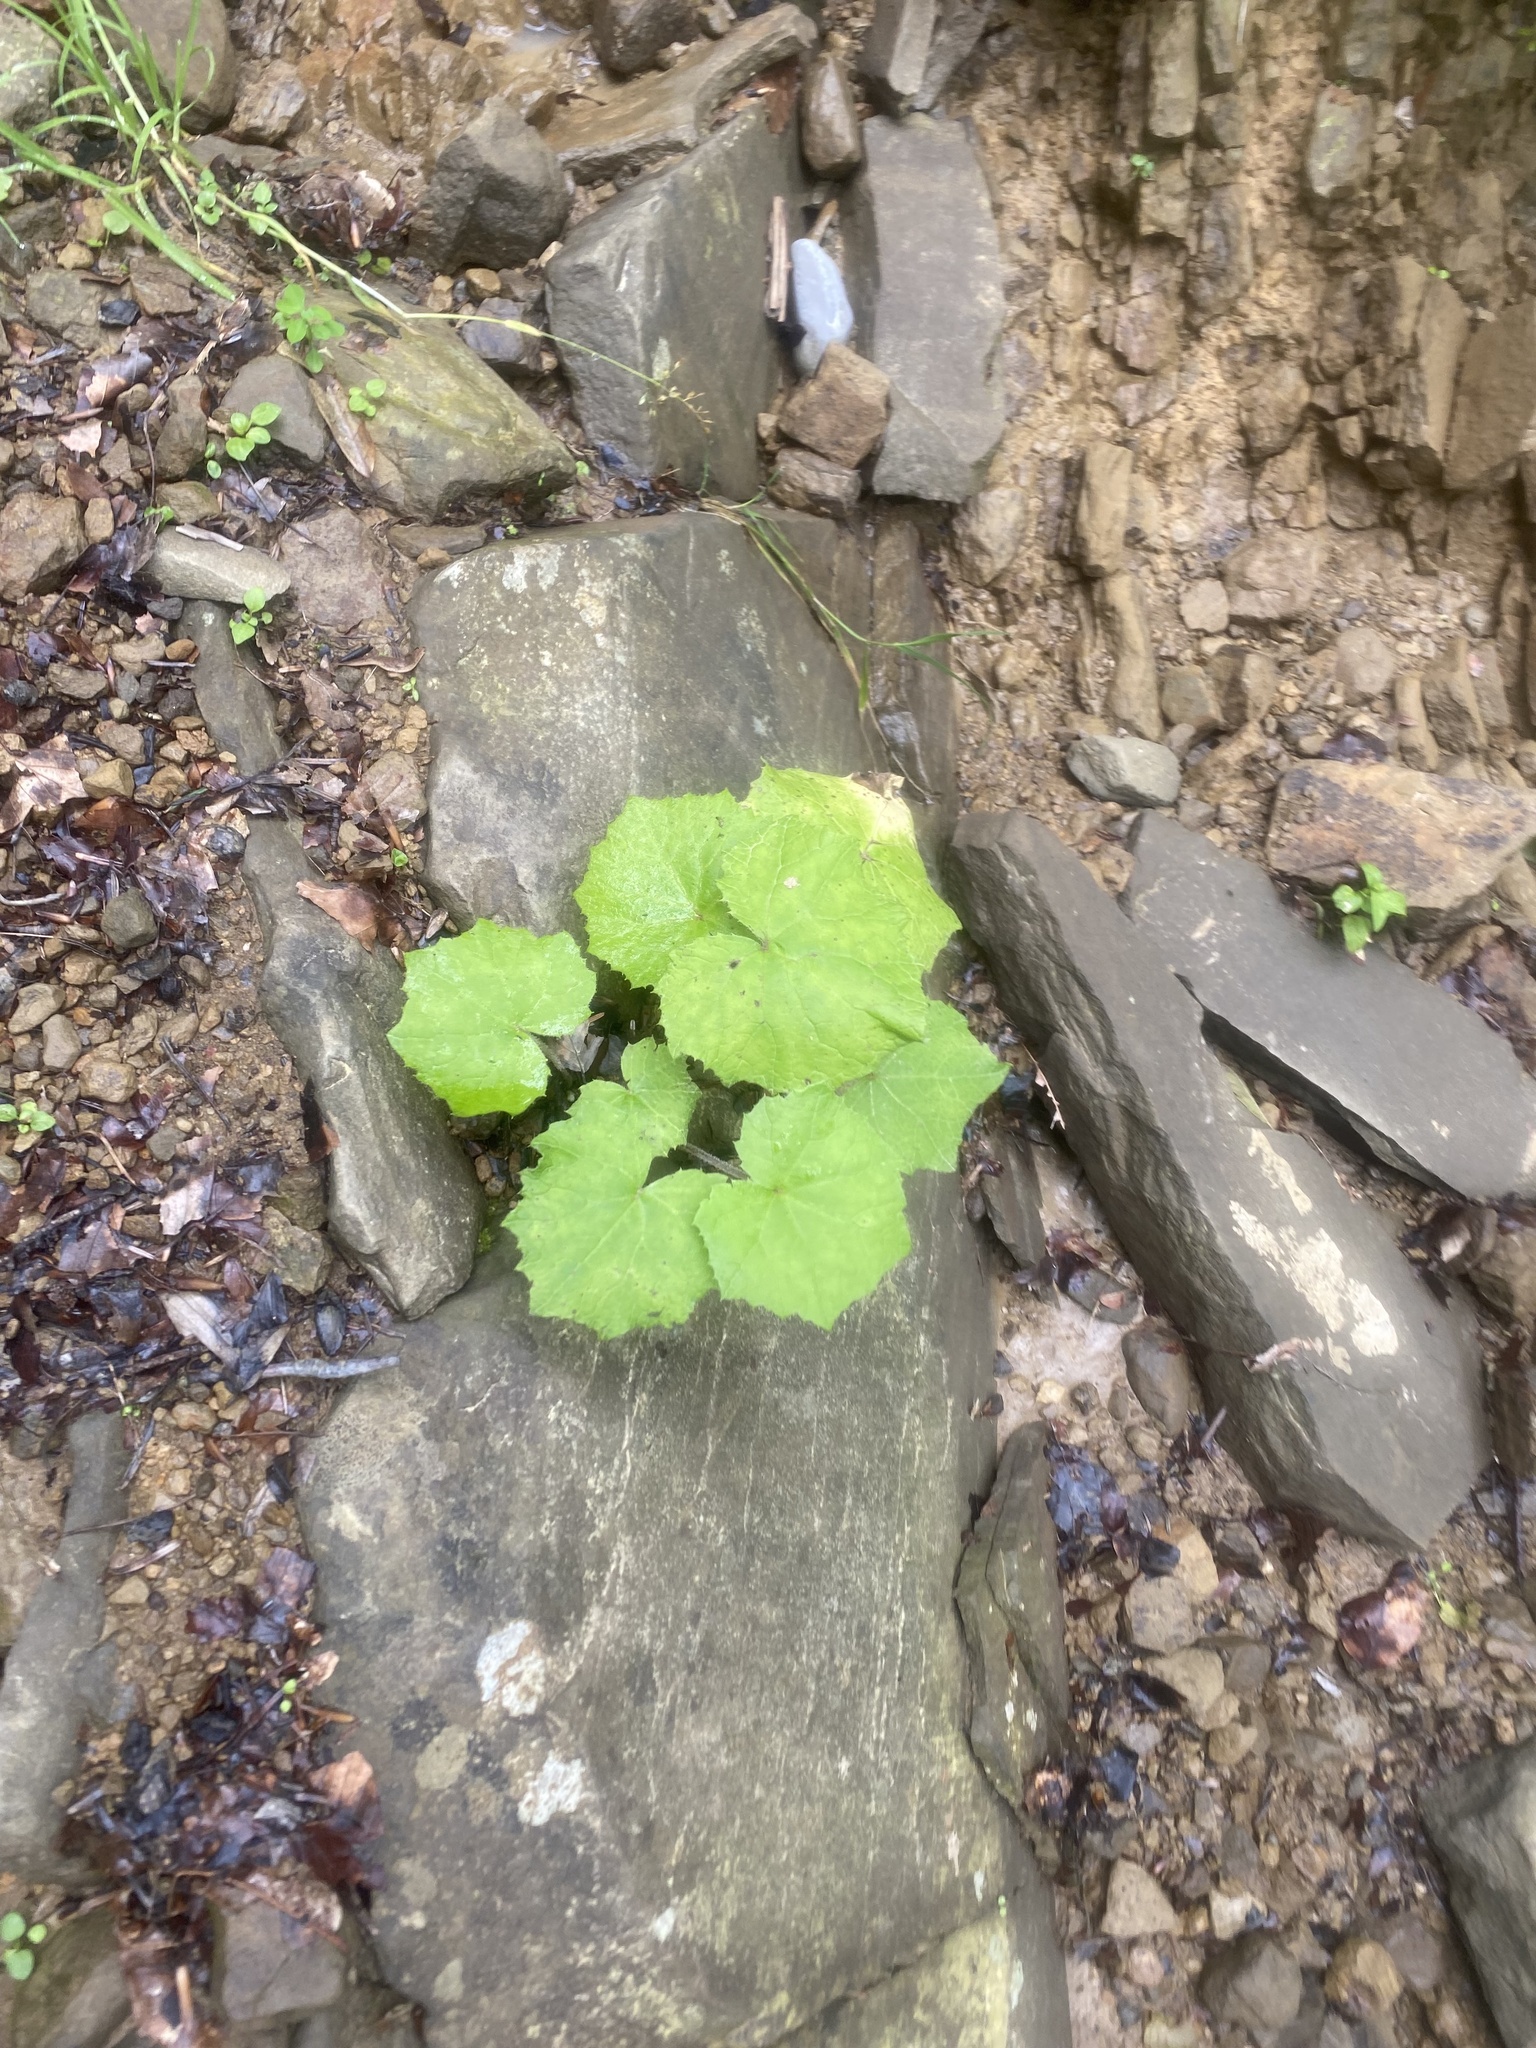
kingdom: Plantae
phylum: Tracheophyta
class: Magnoliopsida
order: Asterales
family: Asteraceae
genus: Tussilago
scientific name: Tussilago farfara
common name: Coltsfoot
